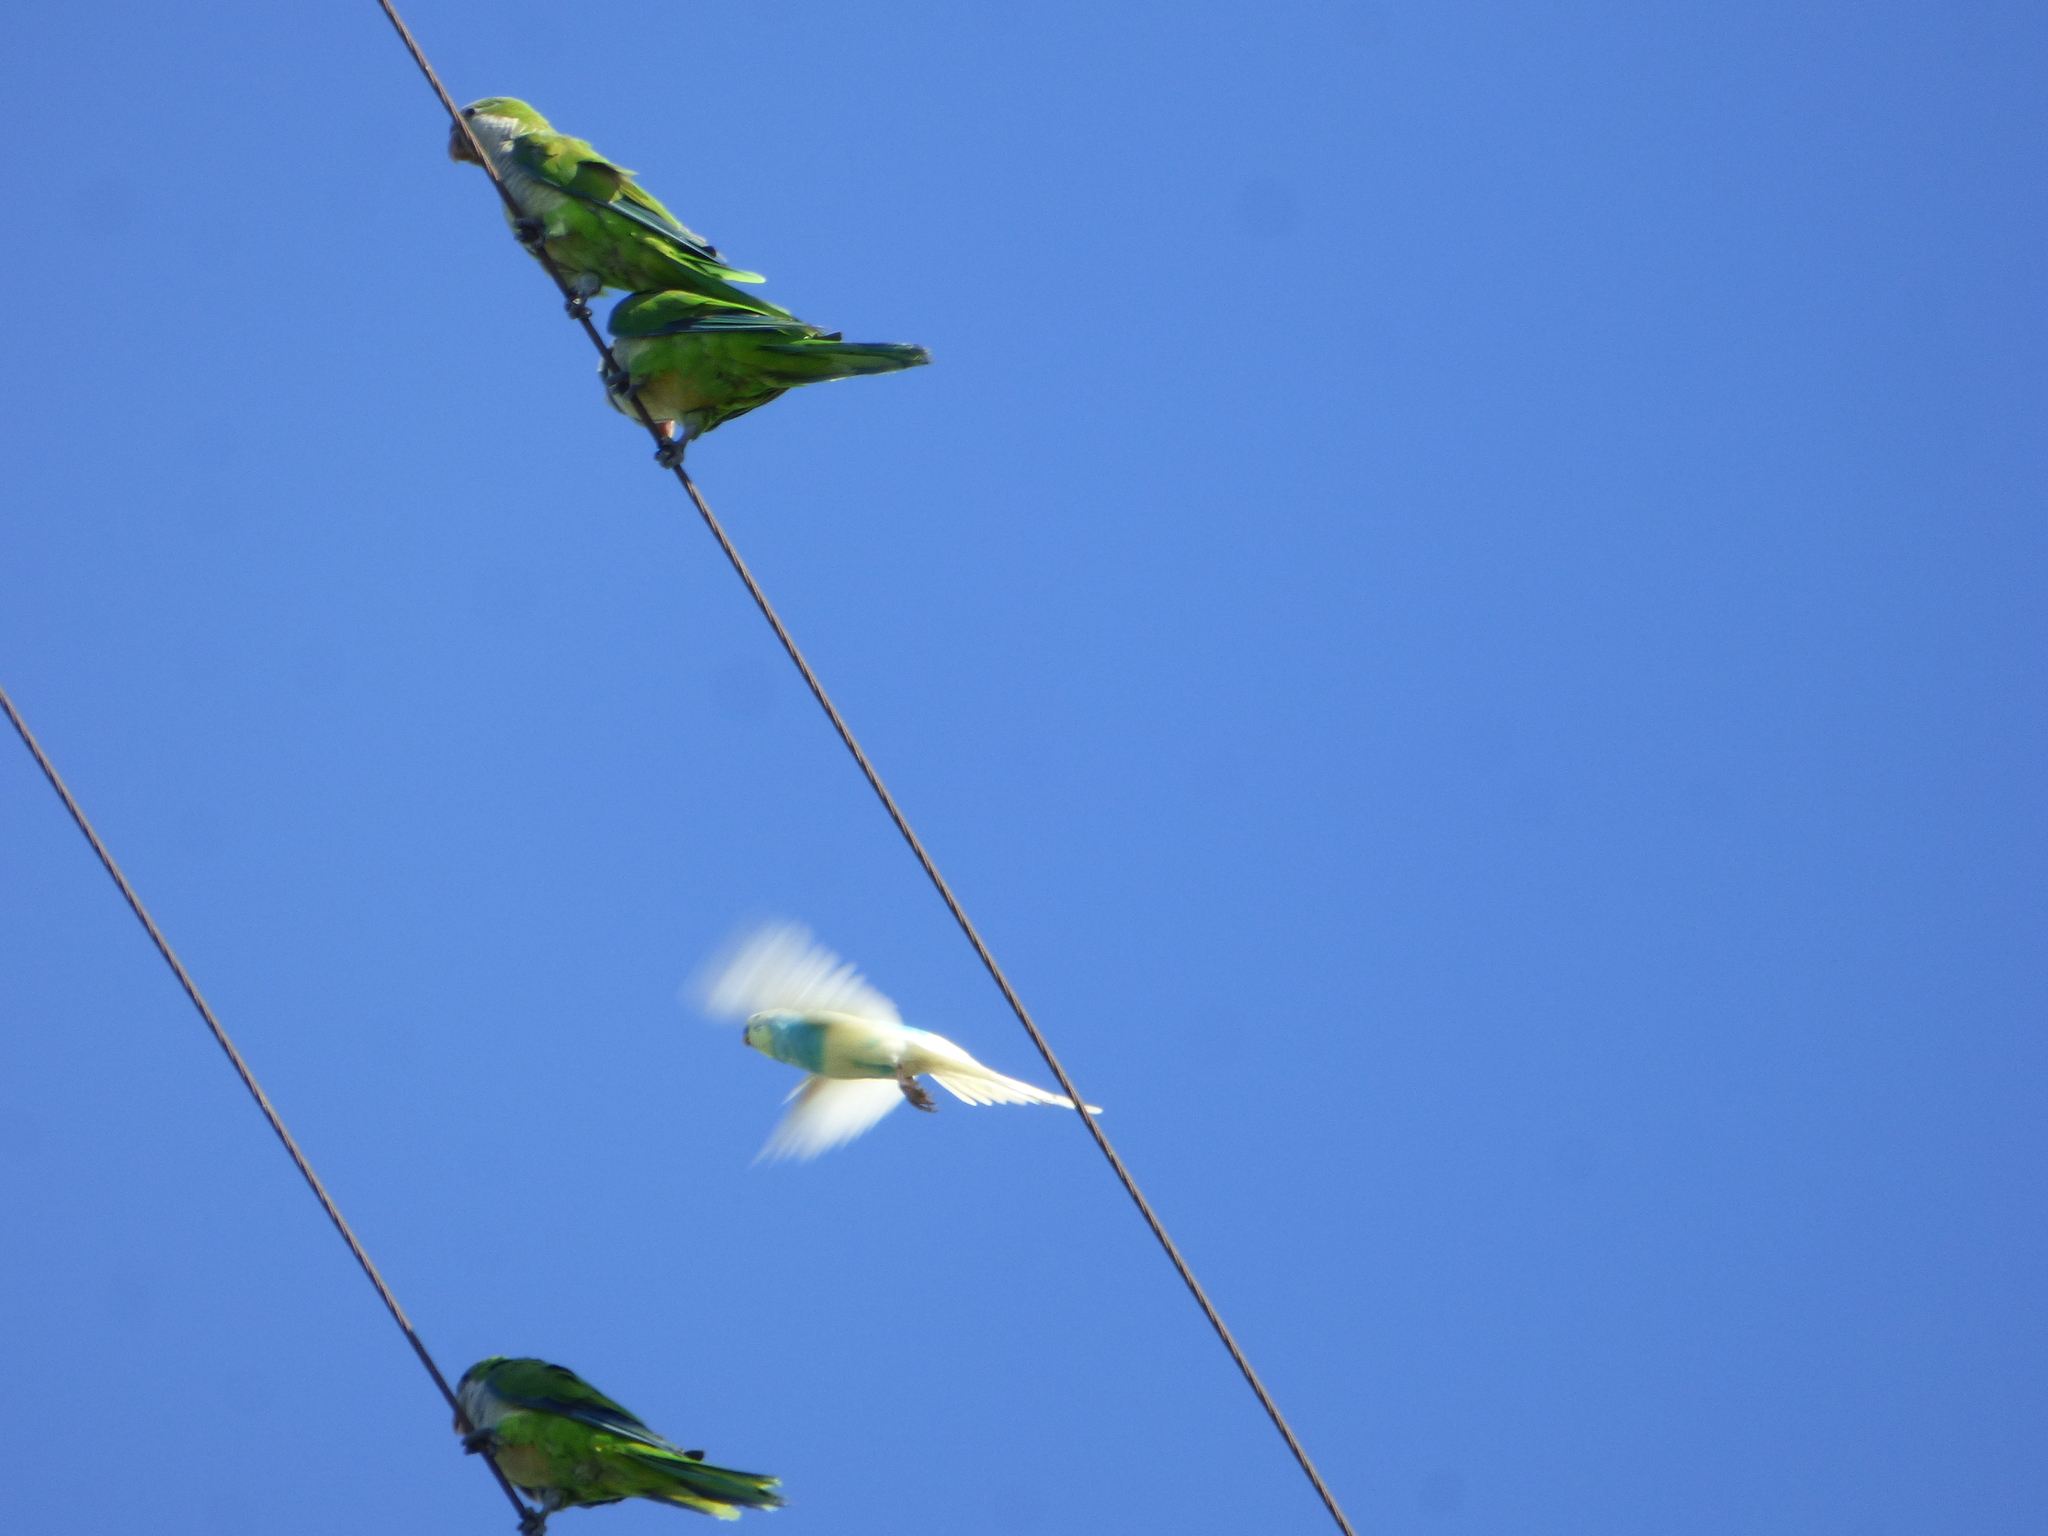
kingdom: Animalia
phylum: Chordata
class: Aves
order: Psittaciformes
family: Psittacidae
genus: Melopsittacus
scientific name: Melopsittacus undulatus
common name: Budgerigar
